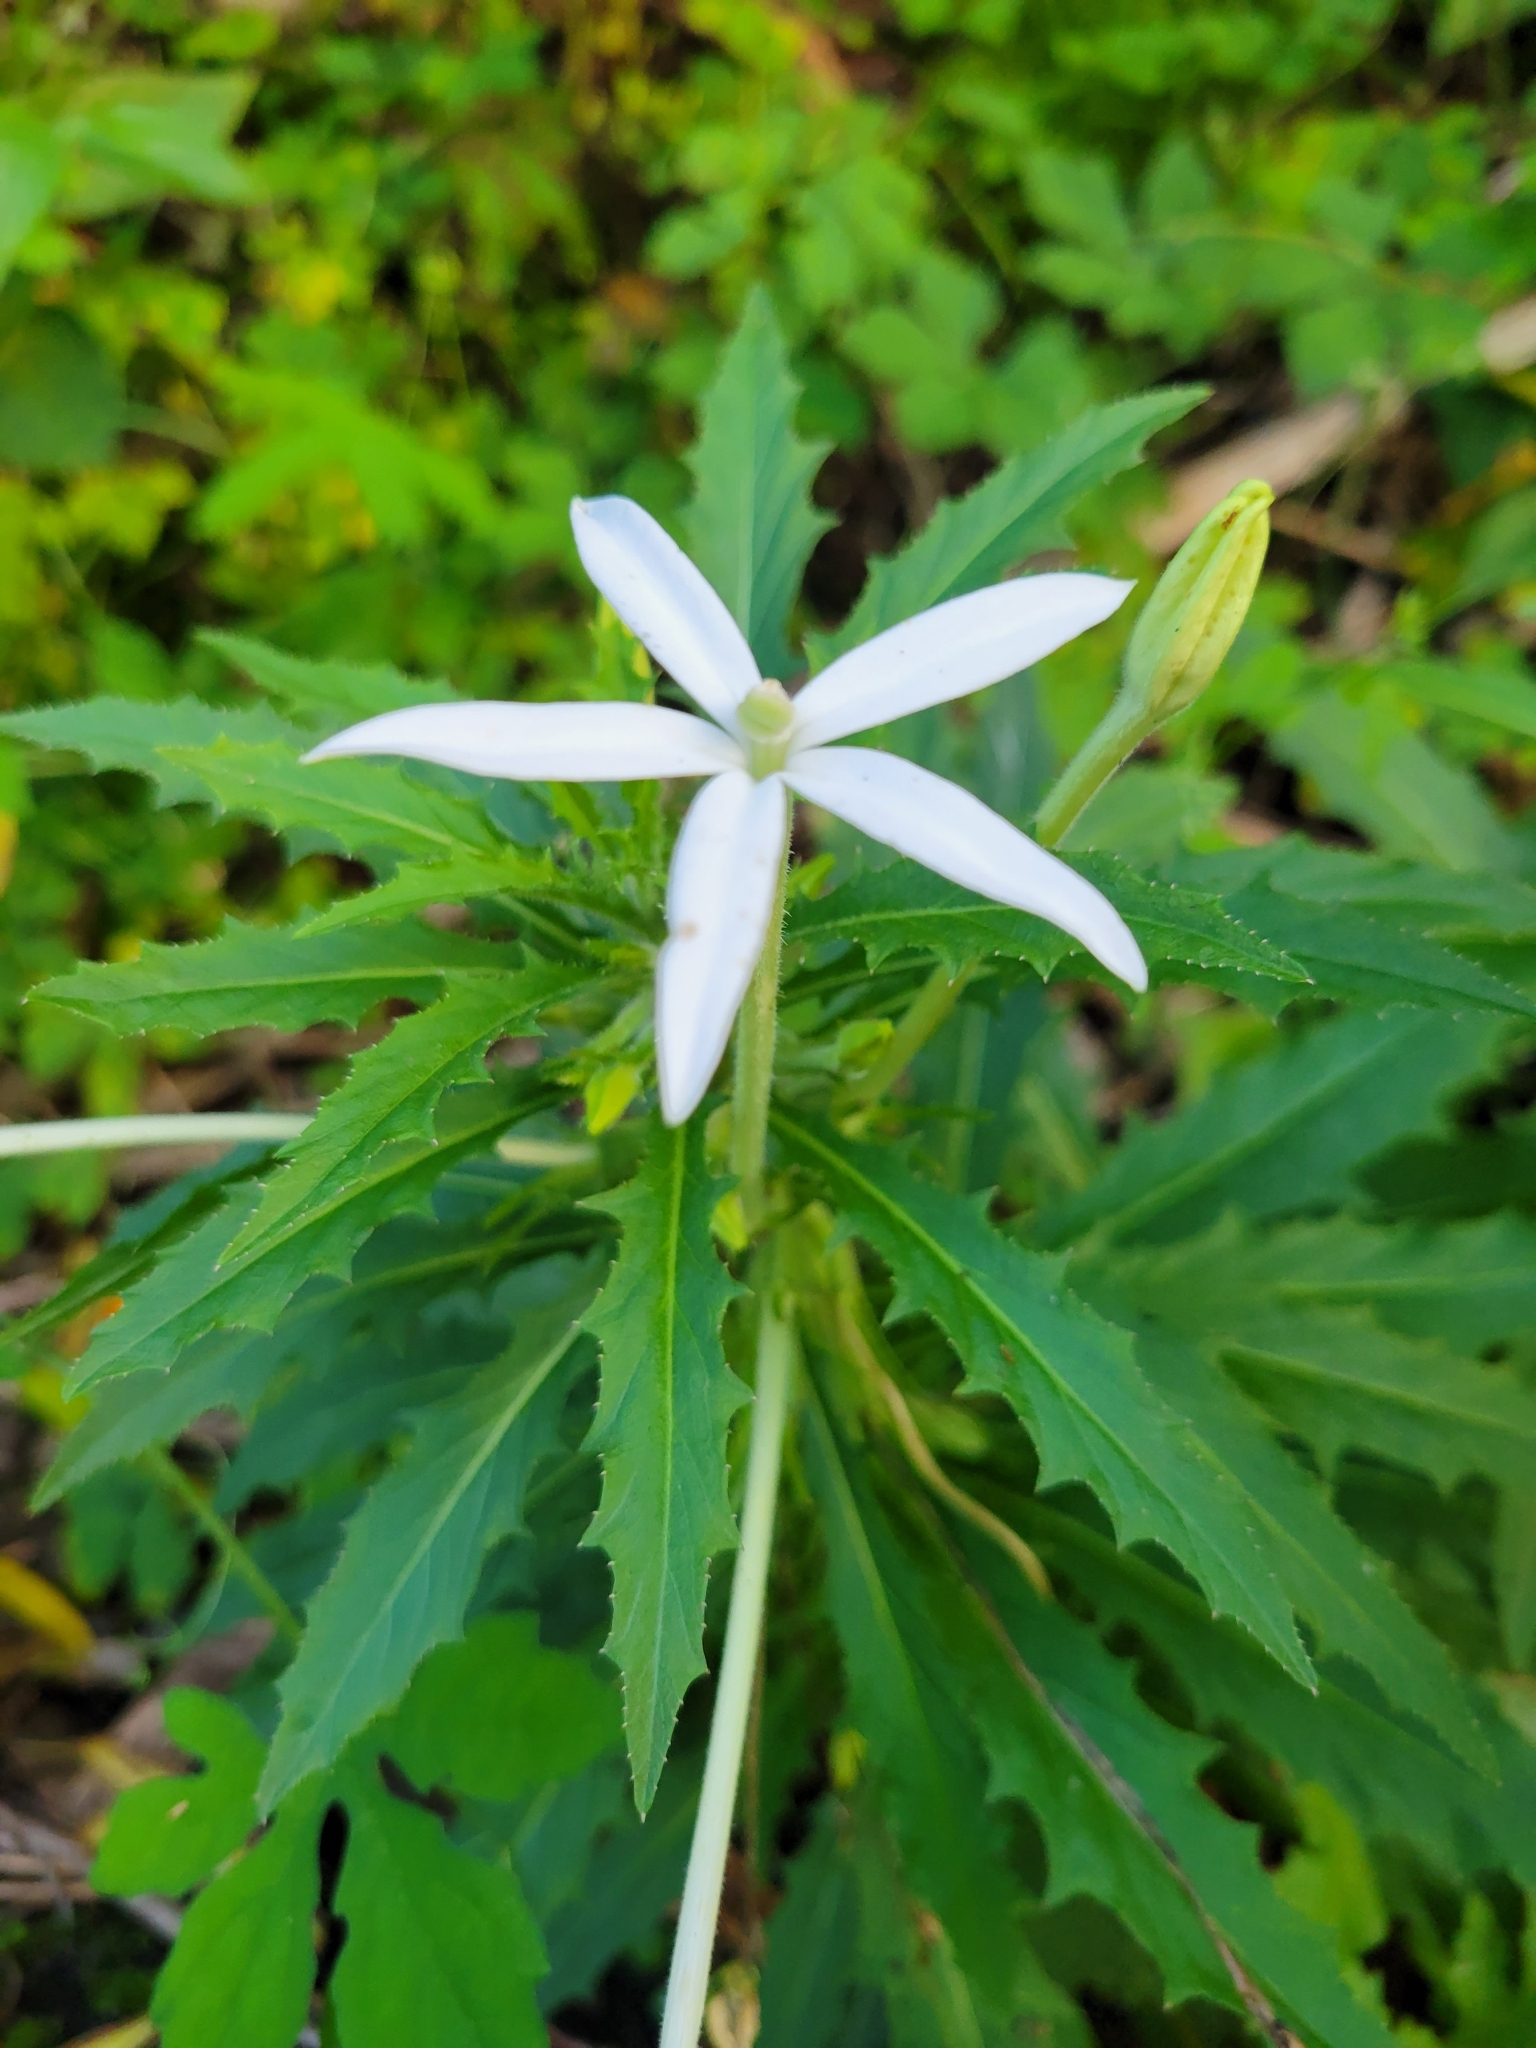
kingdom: Plantae
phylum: Tracheophyta
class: Magnoliopsida
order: Asterales
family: Campanulaceae
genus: Hippobroma
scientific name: Hippobroma longiflora
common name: Madamfate
